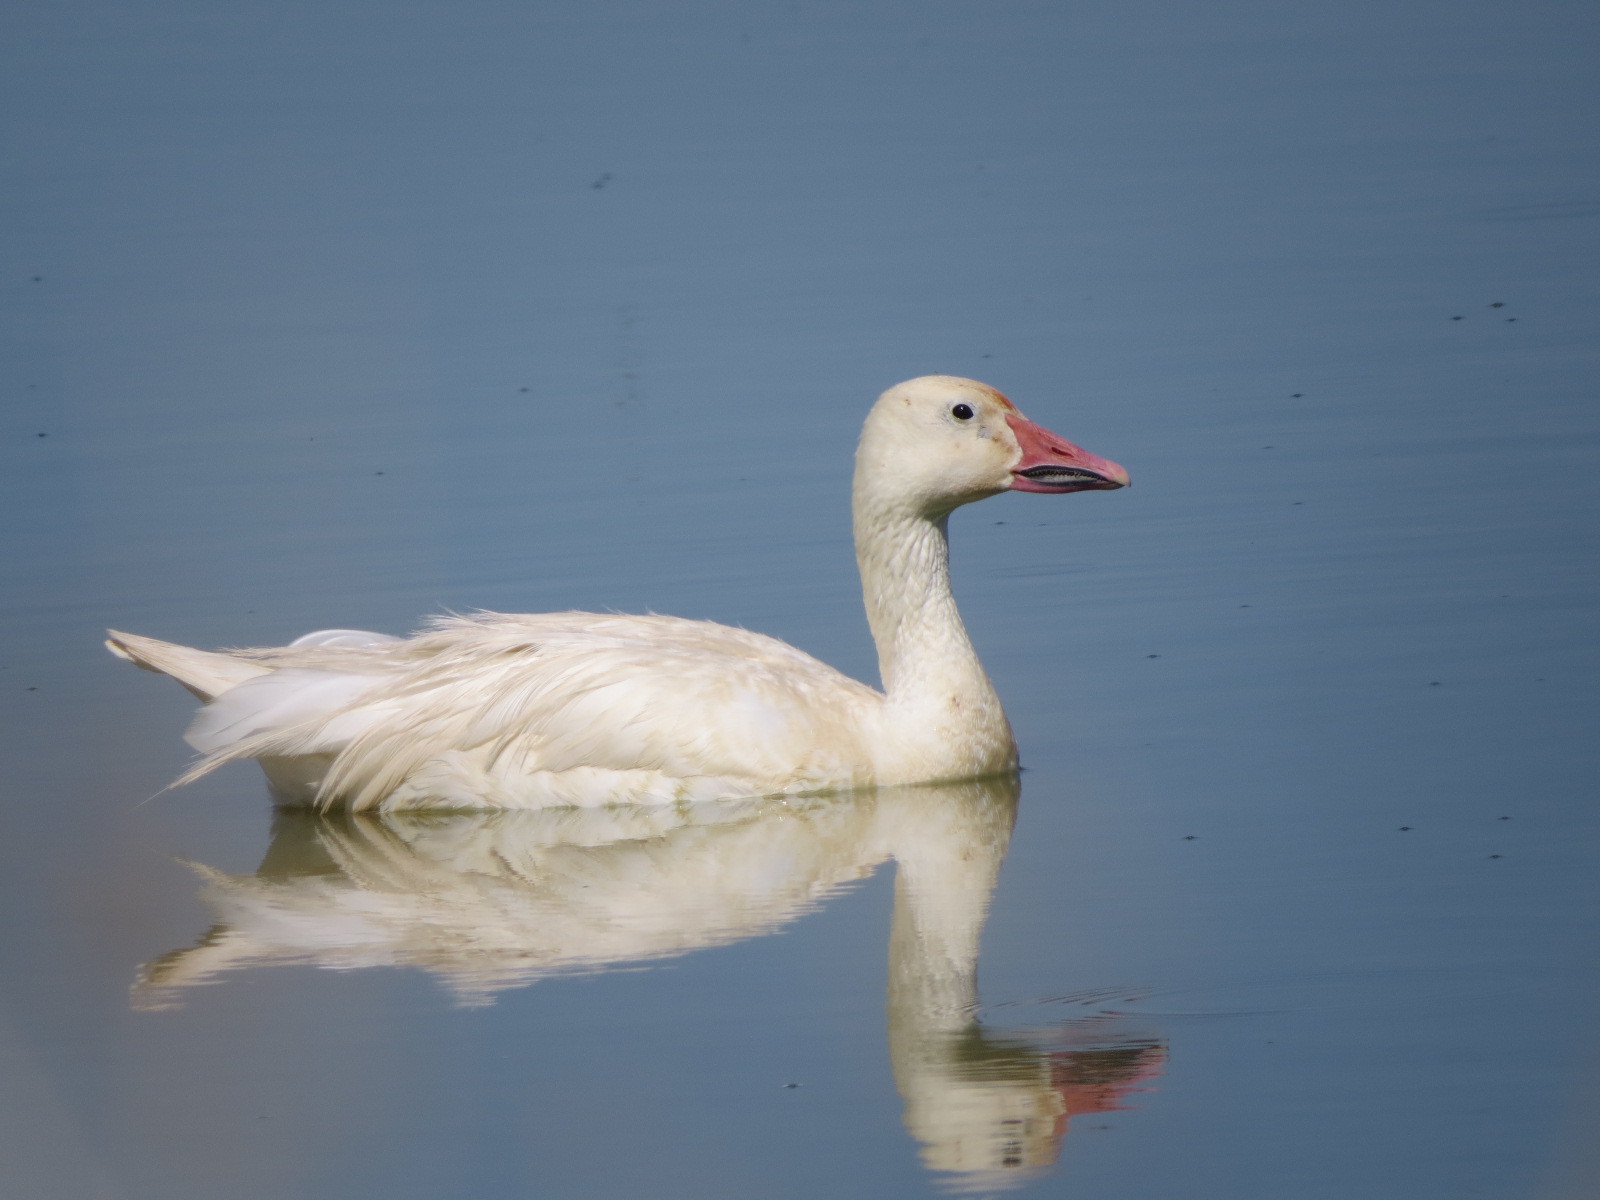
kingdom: Animalia
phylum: Chordata
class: Aves
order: Anseriformes
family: Anatidae
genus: Anser
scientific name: Anser caerulescens
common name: Snow goose
